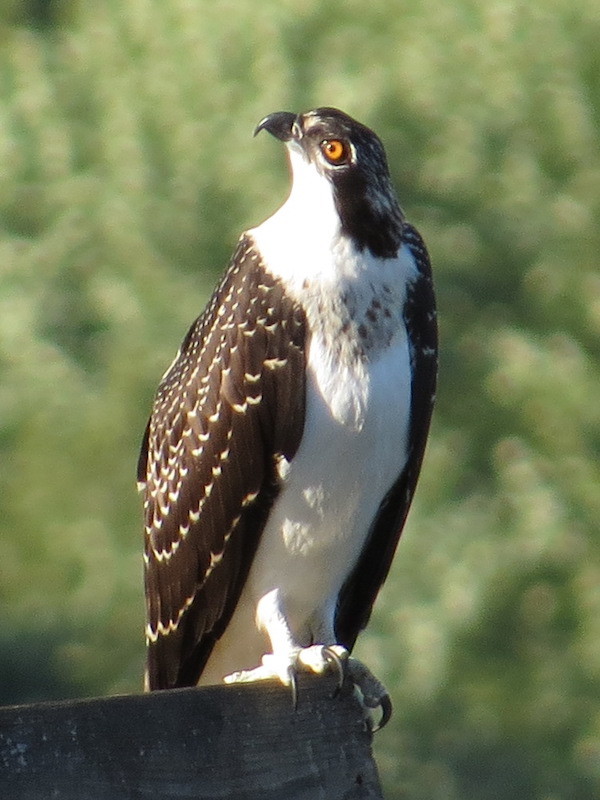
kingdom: Animalia
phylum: Chordata
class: Aves
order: Accipitriformes
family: Pandionidae
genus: Pandion
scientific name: Pandion haliaetus
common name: Osprey
